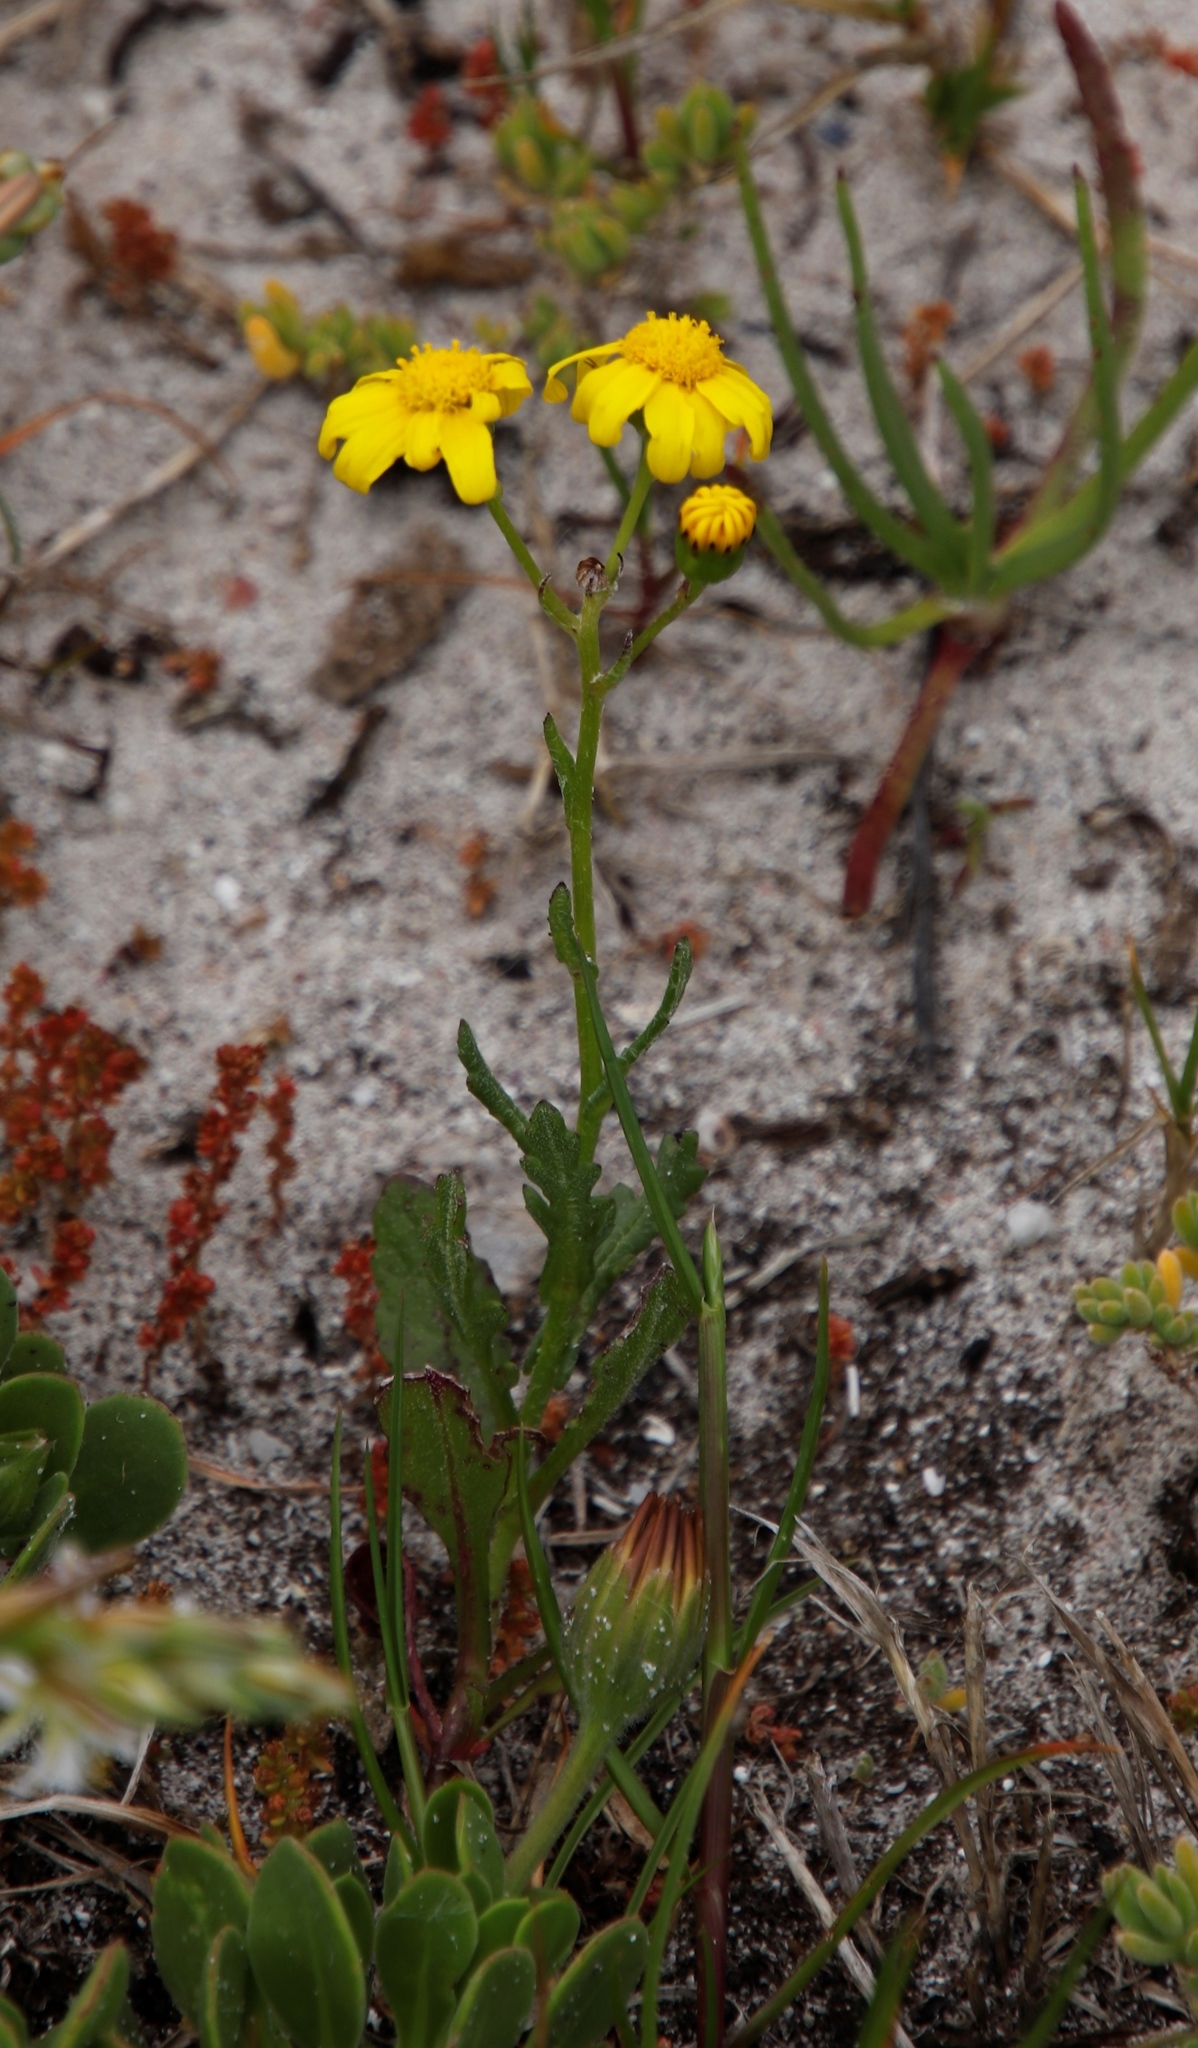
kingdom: Plantae
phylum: Tracheophyta
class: Magnoliopsida
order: Asterales
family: Asteraceae
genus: Senecio
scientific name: Senecio littoreus
